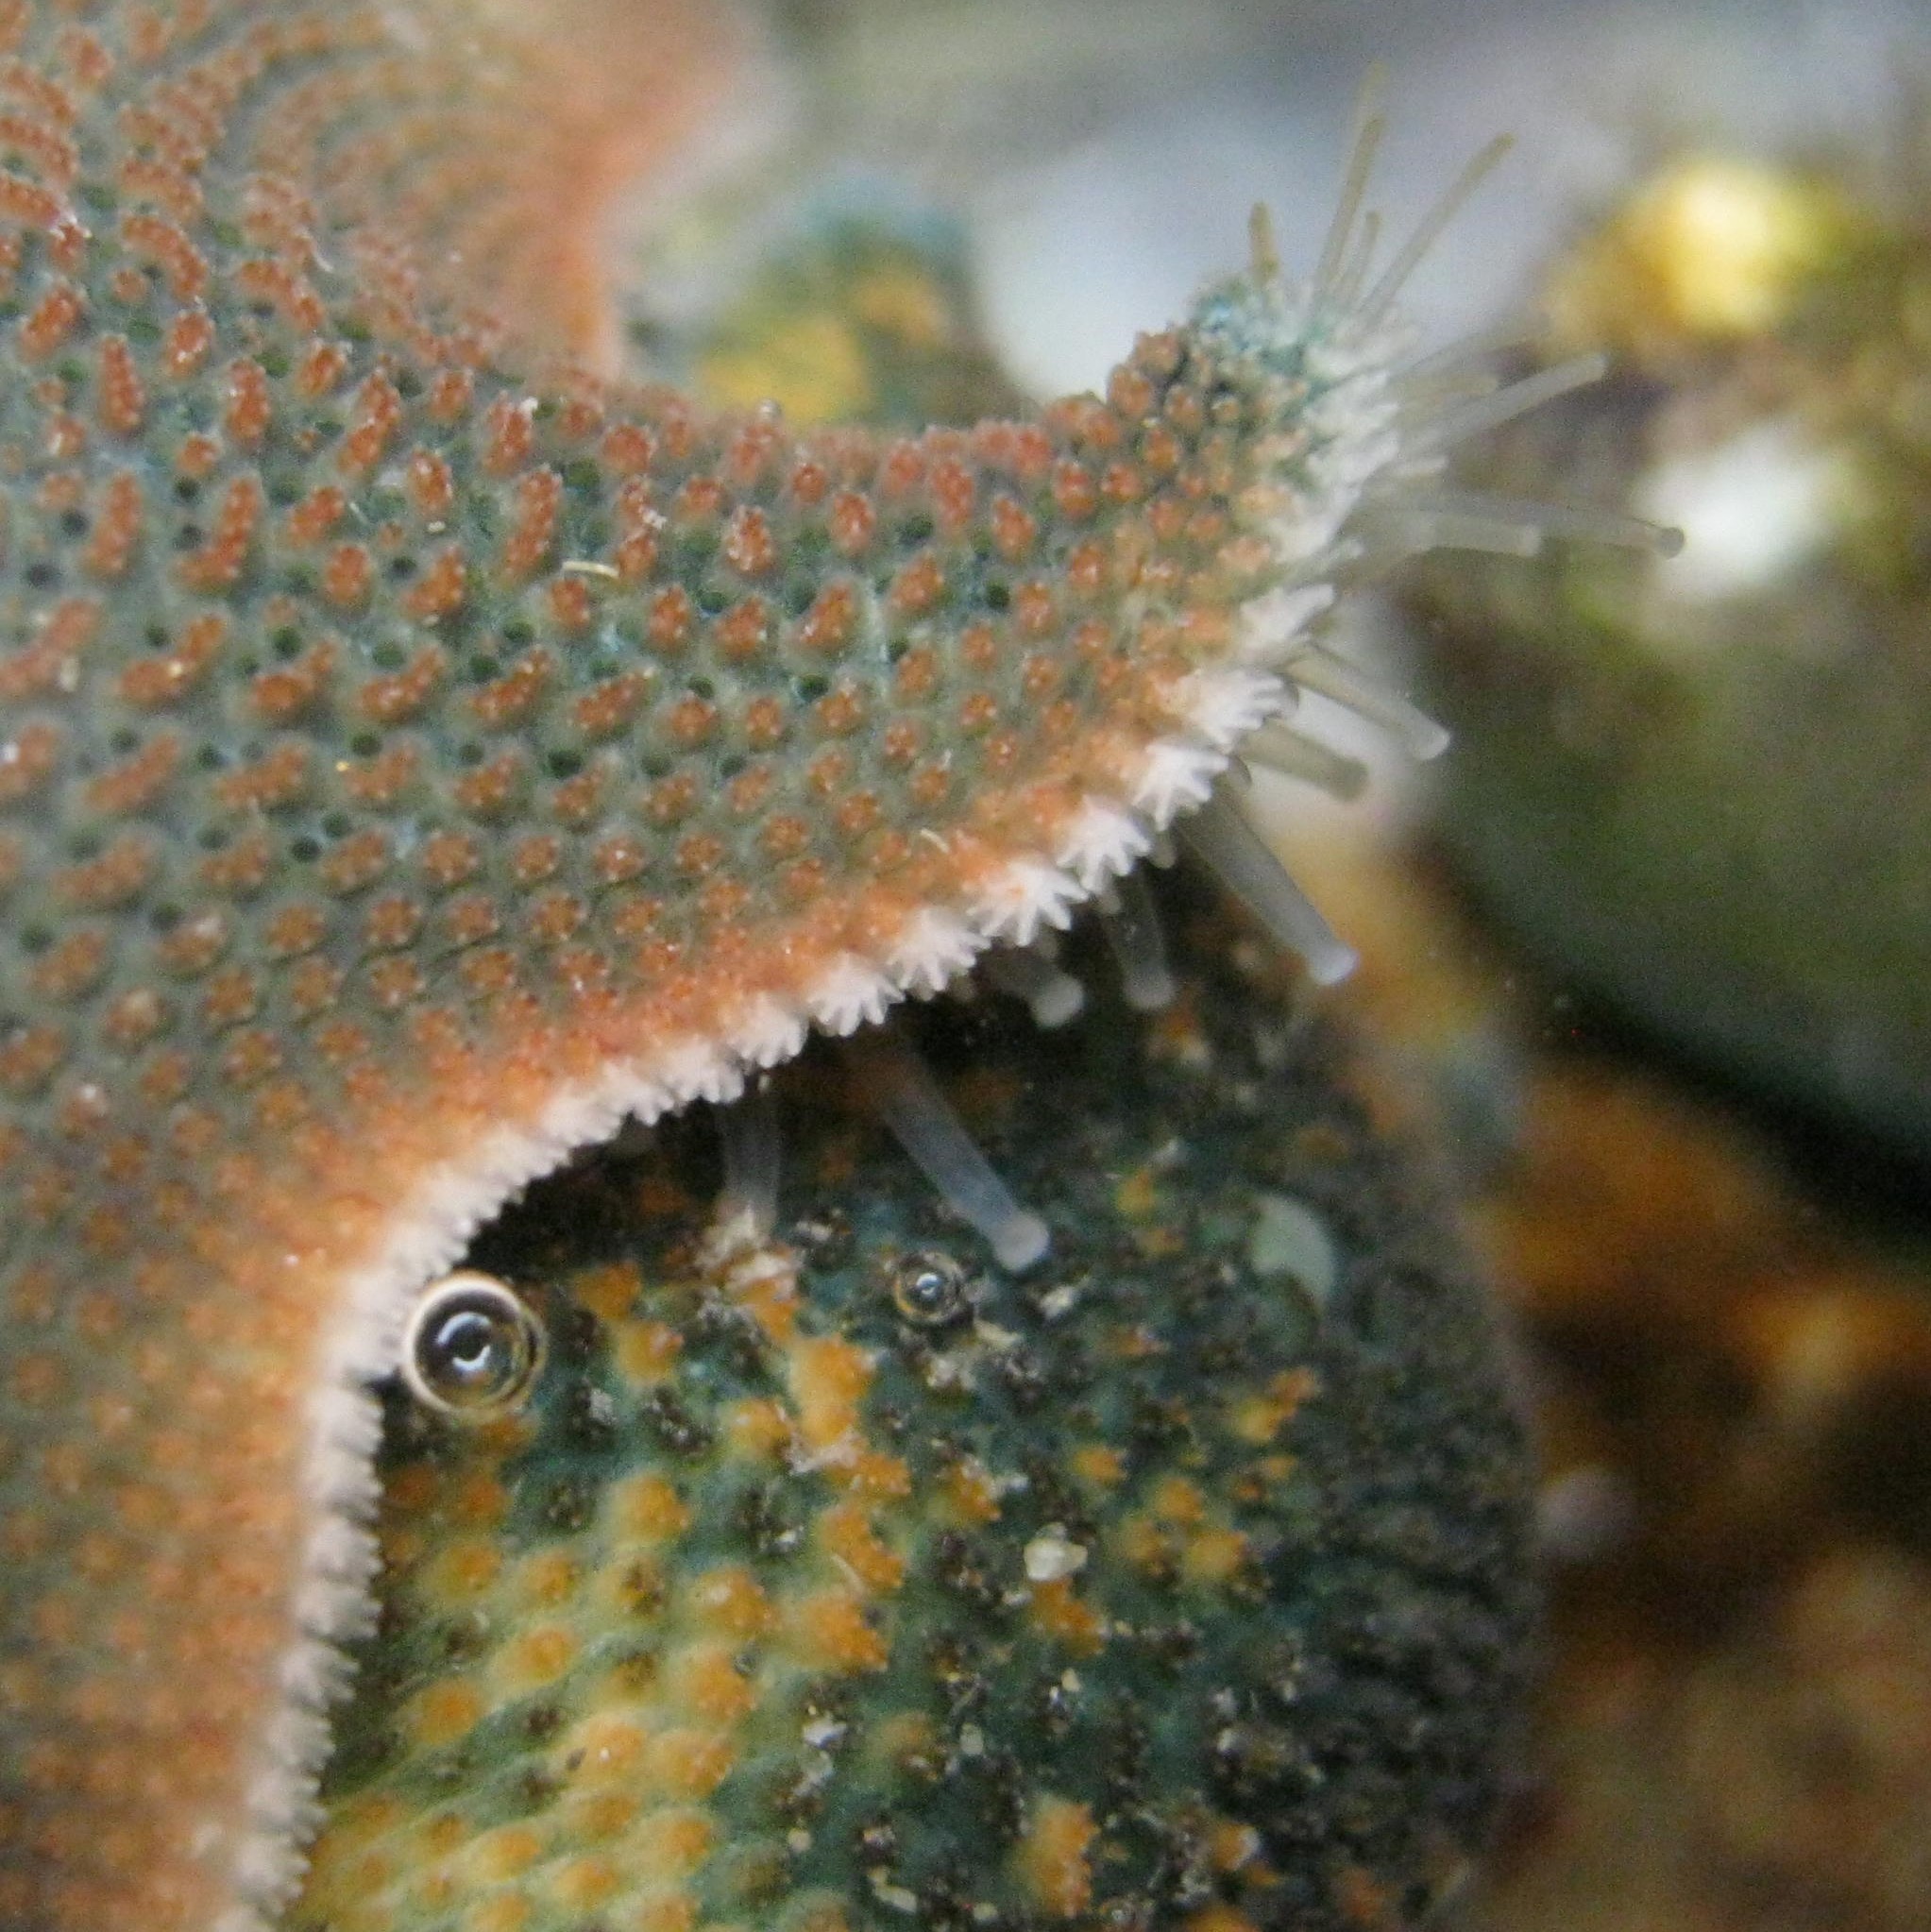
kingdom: Animalia
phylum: Echinodermata
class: Asteroidea
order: Valvatida
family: Asterinidae
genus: Patiriella
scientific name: Patiriella regularis
